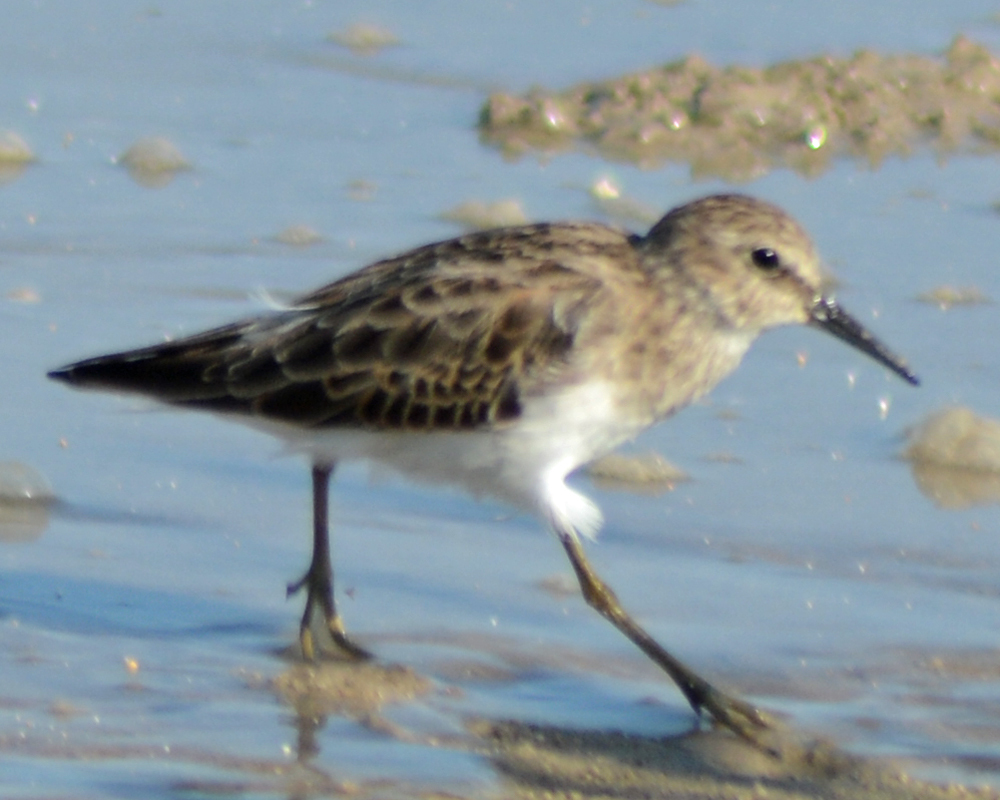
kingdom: Animalia
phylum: Chordata
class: Aves
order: Charadriiformes
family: Scolopacidae
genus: Calidris
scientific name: Calidris minutilla
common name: Least sandpiper
